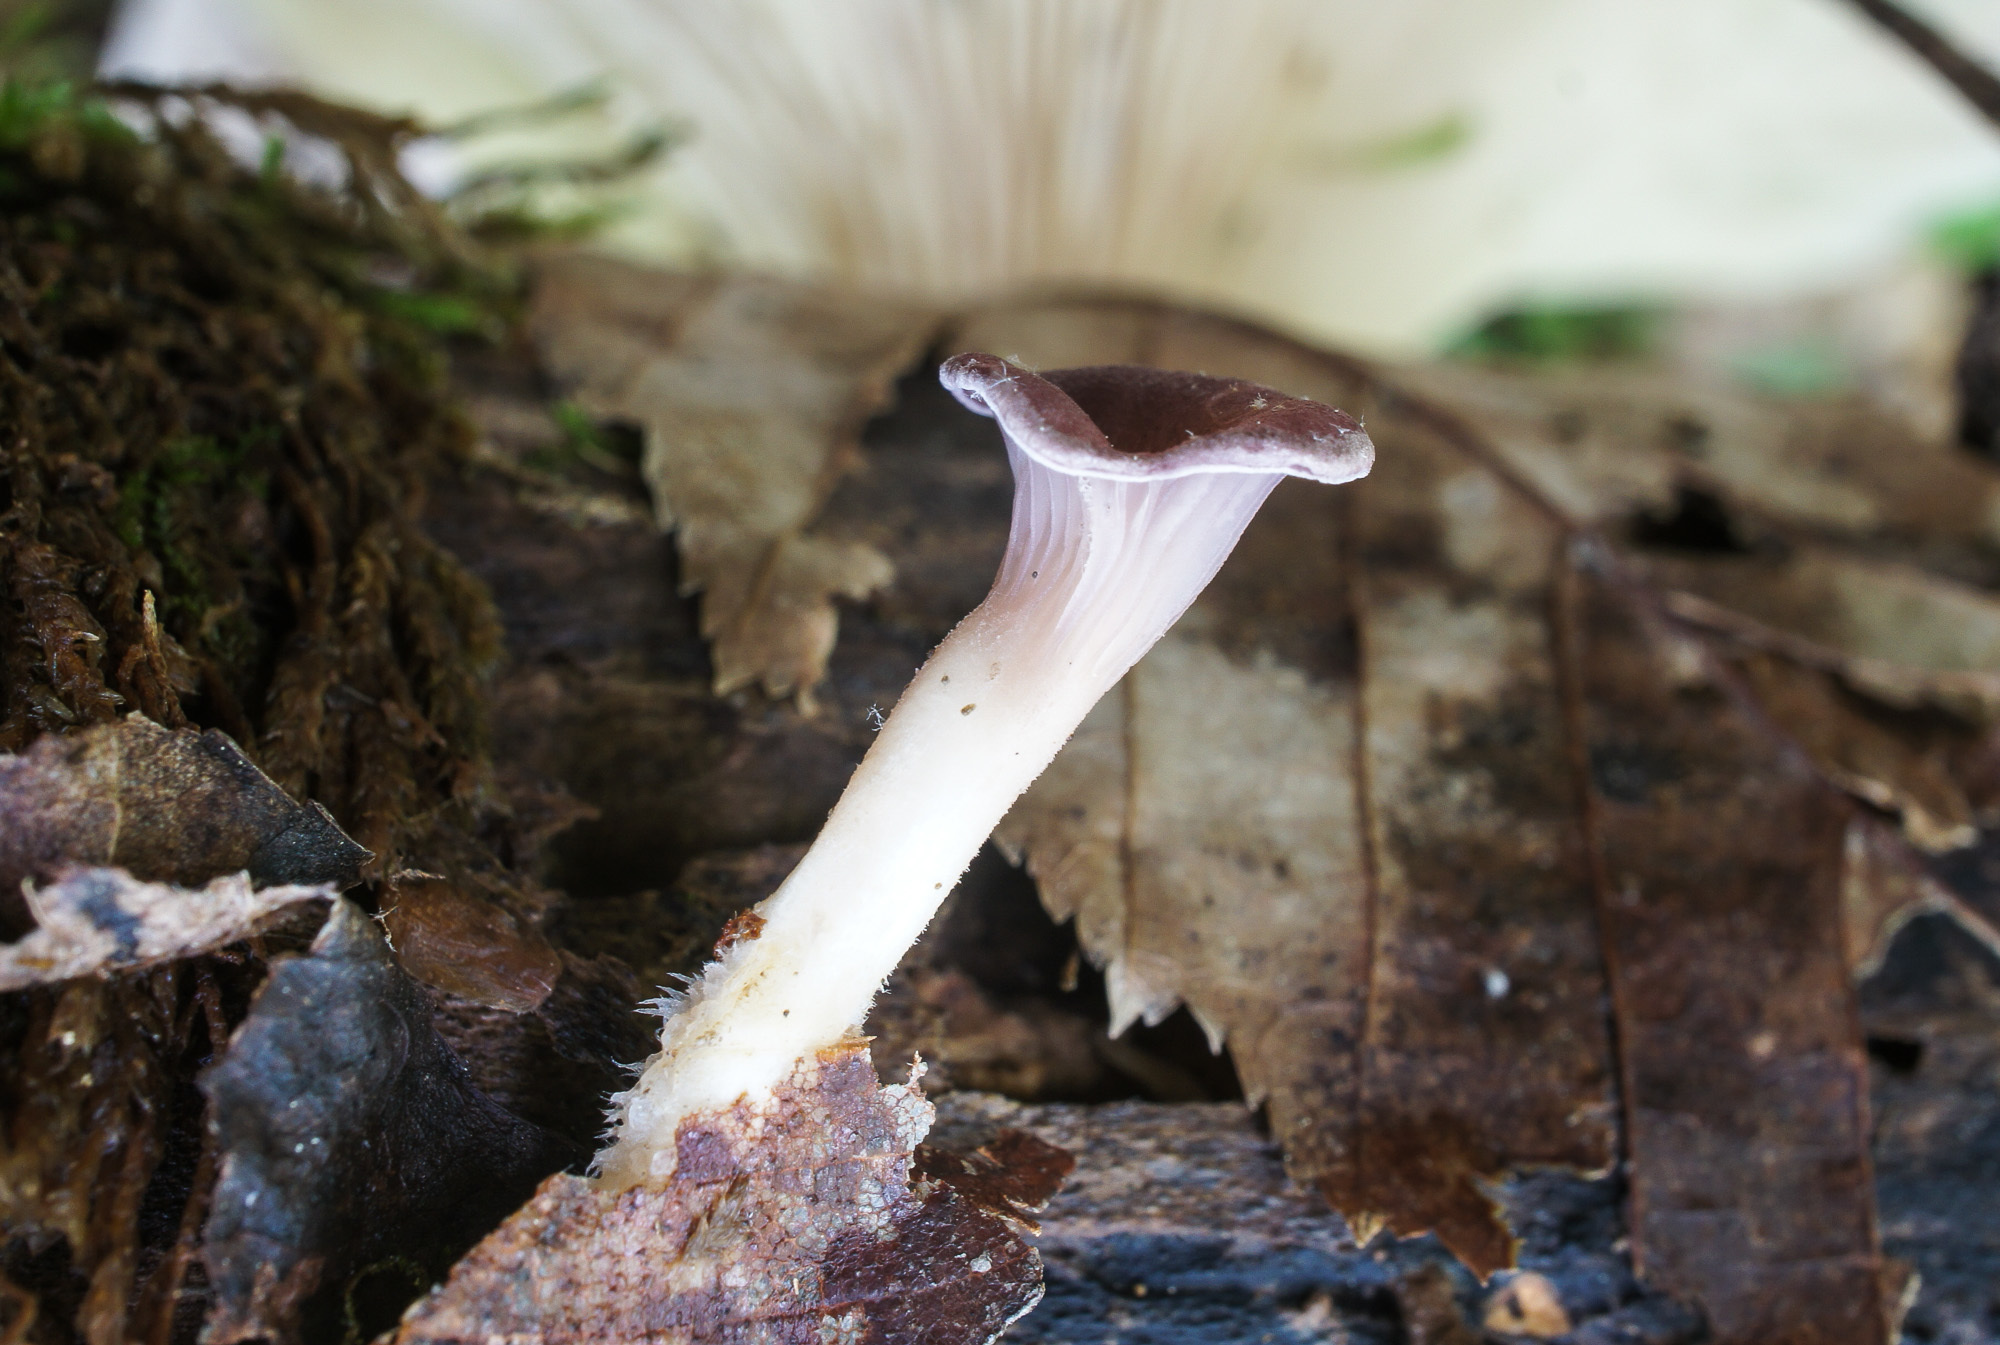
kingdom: Fungi
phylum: Basidiomycota
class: Agaricomycetes
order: Polyporales
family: Panaceae
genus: Panus
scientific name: Panus conchatus
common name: Lilac oysterling
